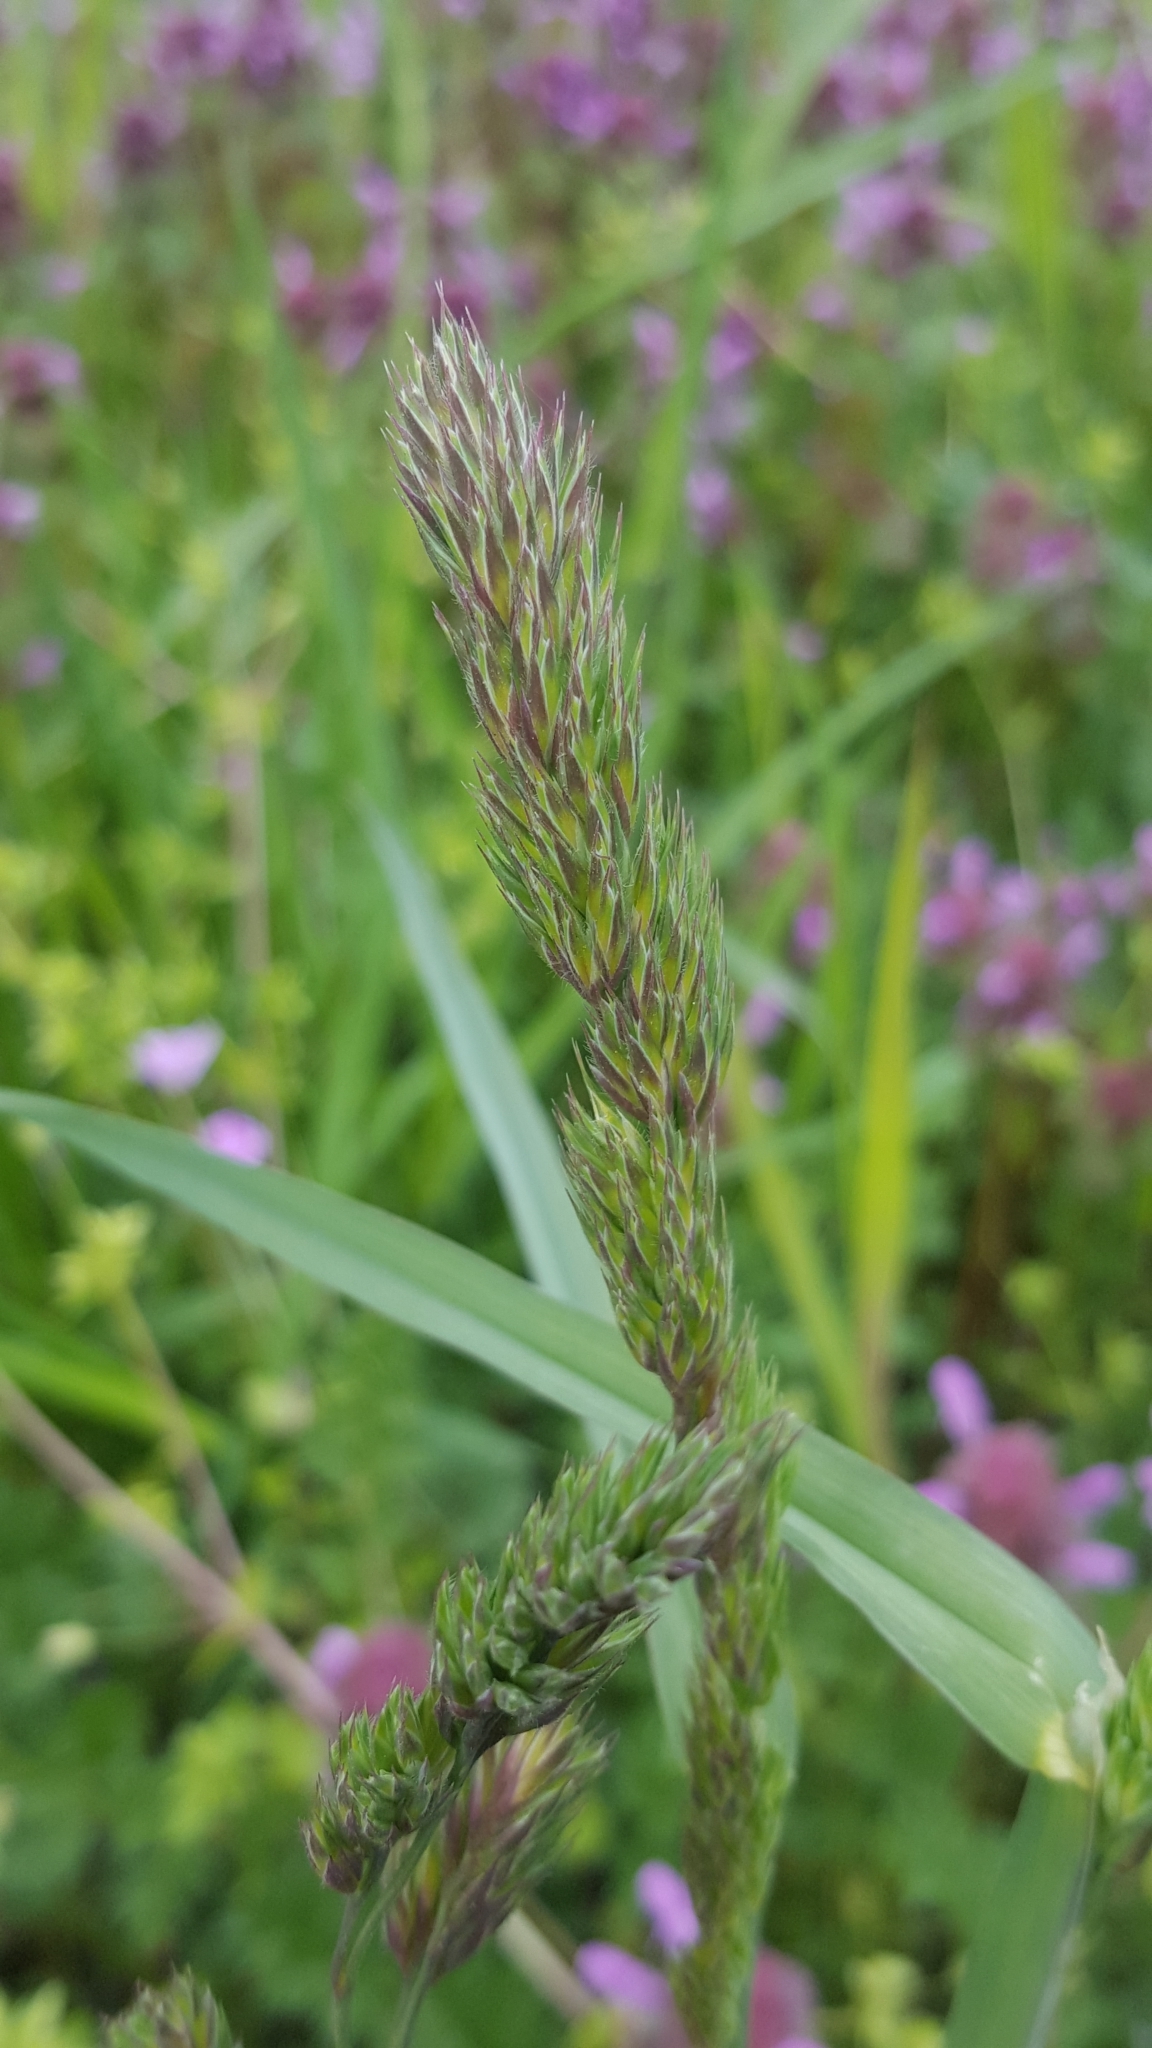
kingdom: Plantae
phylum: Tracheophyta
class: Liliopsida
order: Poales
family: Poaceae
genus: Dactylis
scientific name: Dactylis glomerata
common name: Orchardgrass
